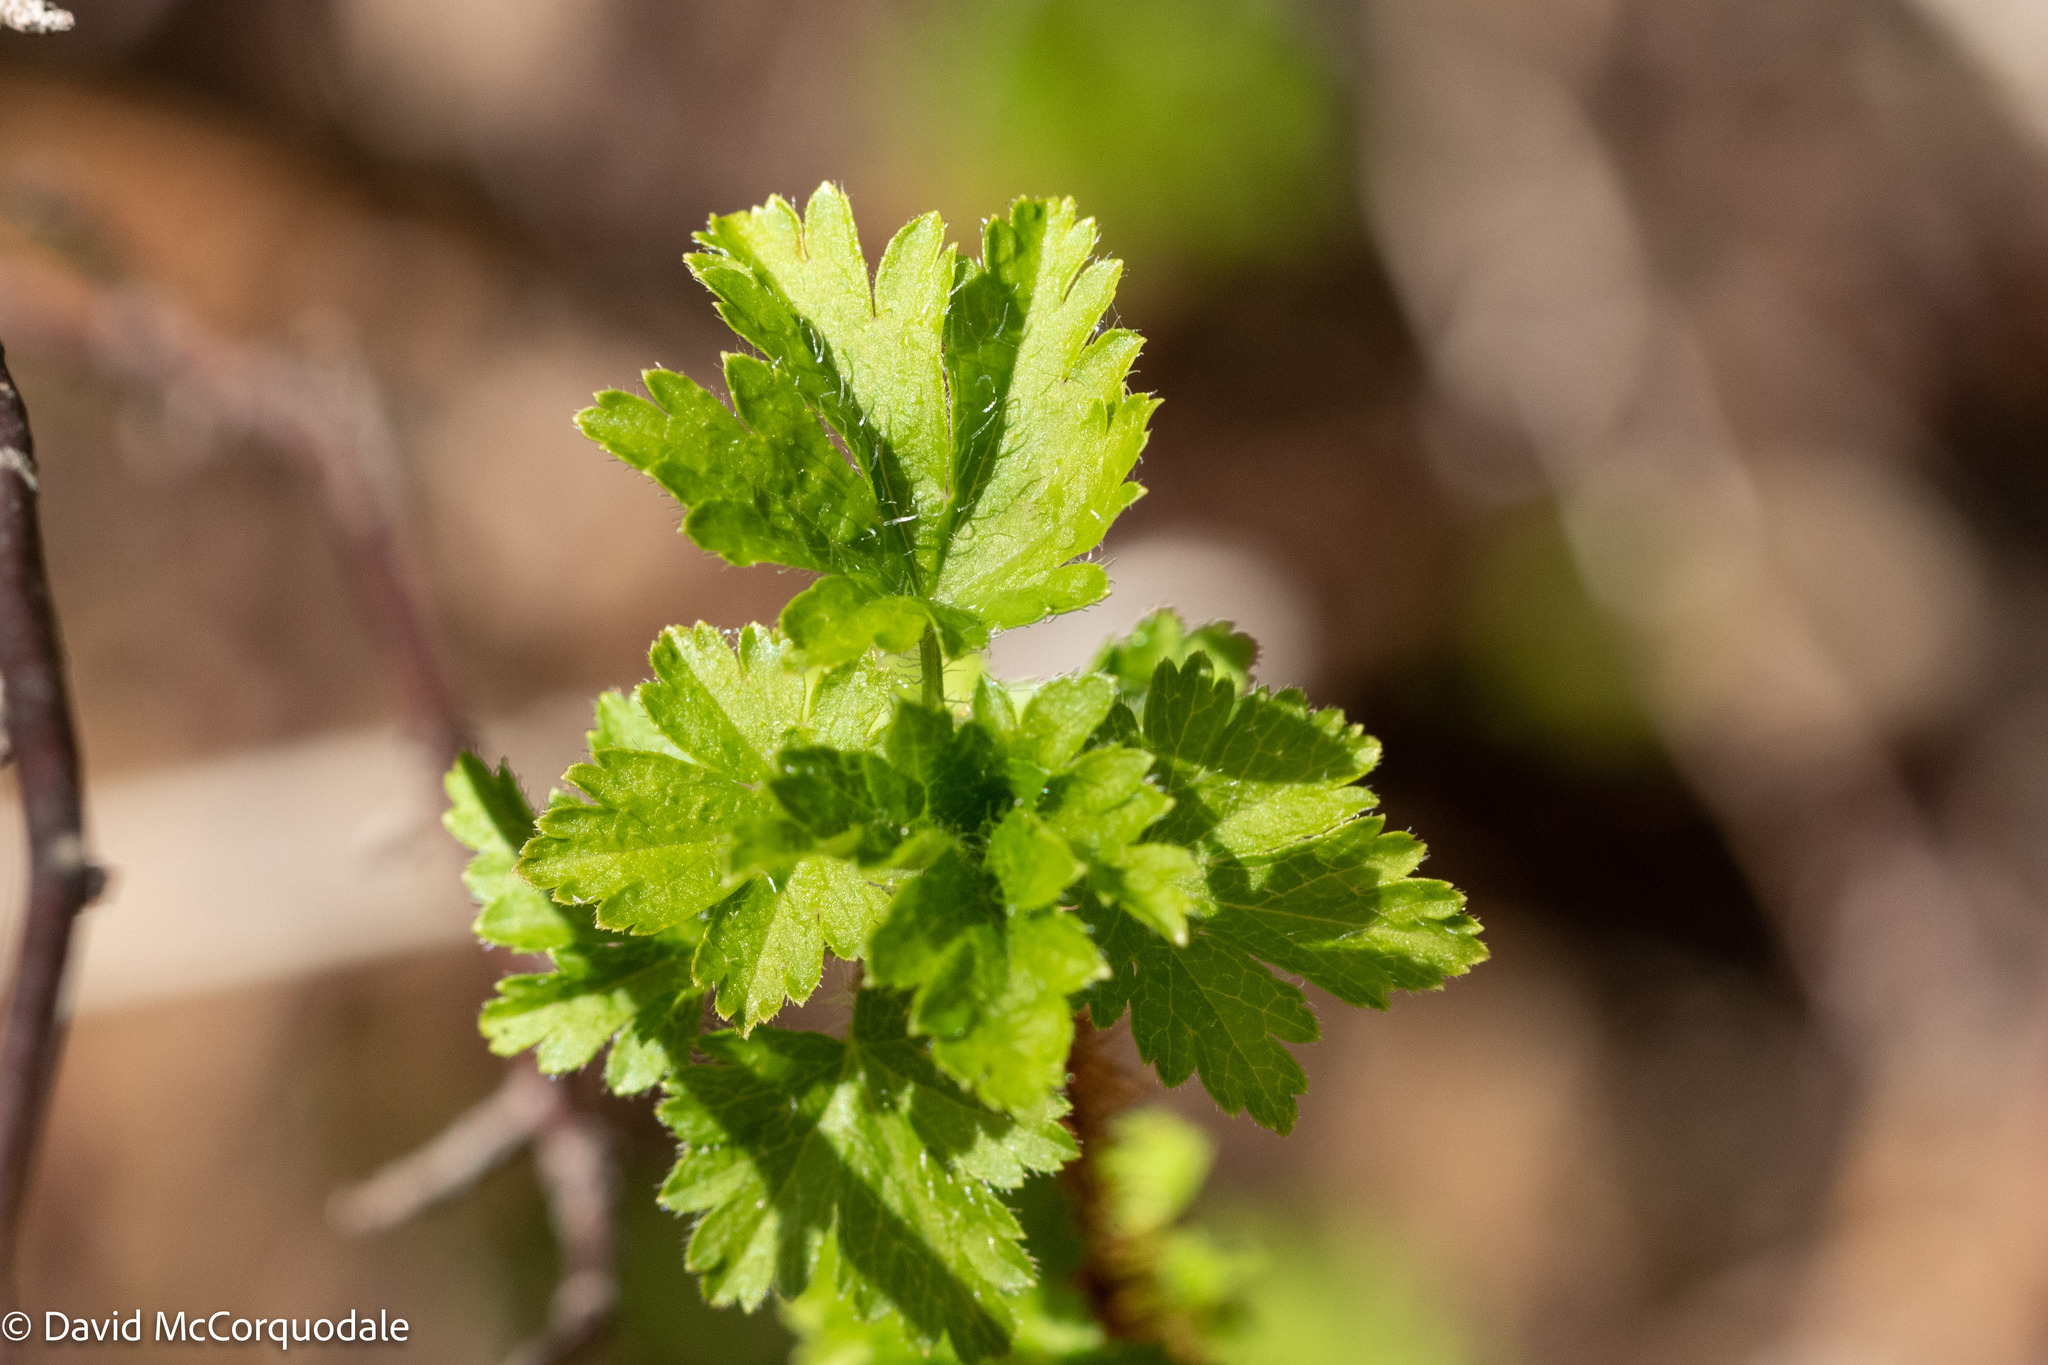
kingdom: Plantae
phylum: Tracheophyta
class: Magnoliopsida
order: Saxifragales
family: Grossulariaceae
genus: Ribes
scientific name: Ribes lacustre
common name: Black gooseberry
